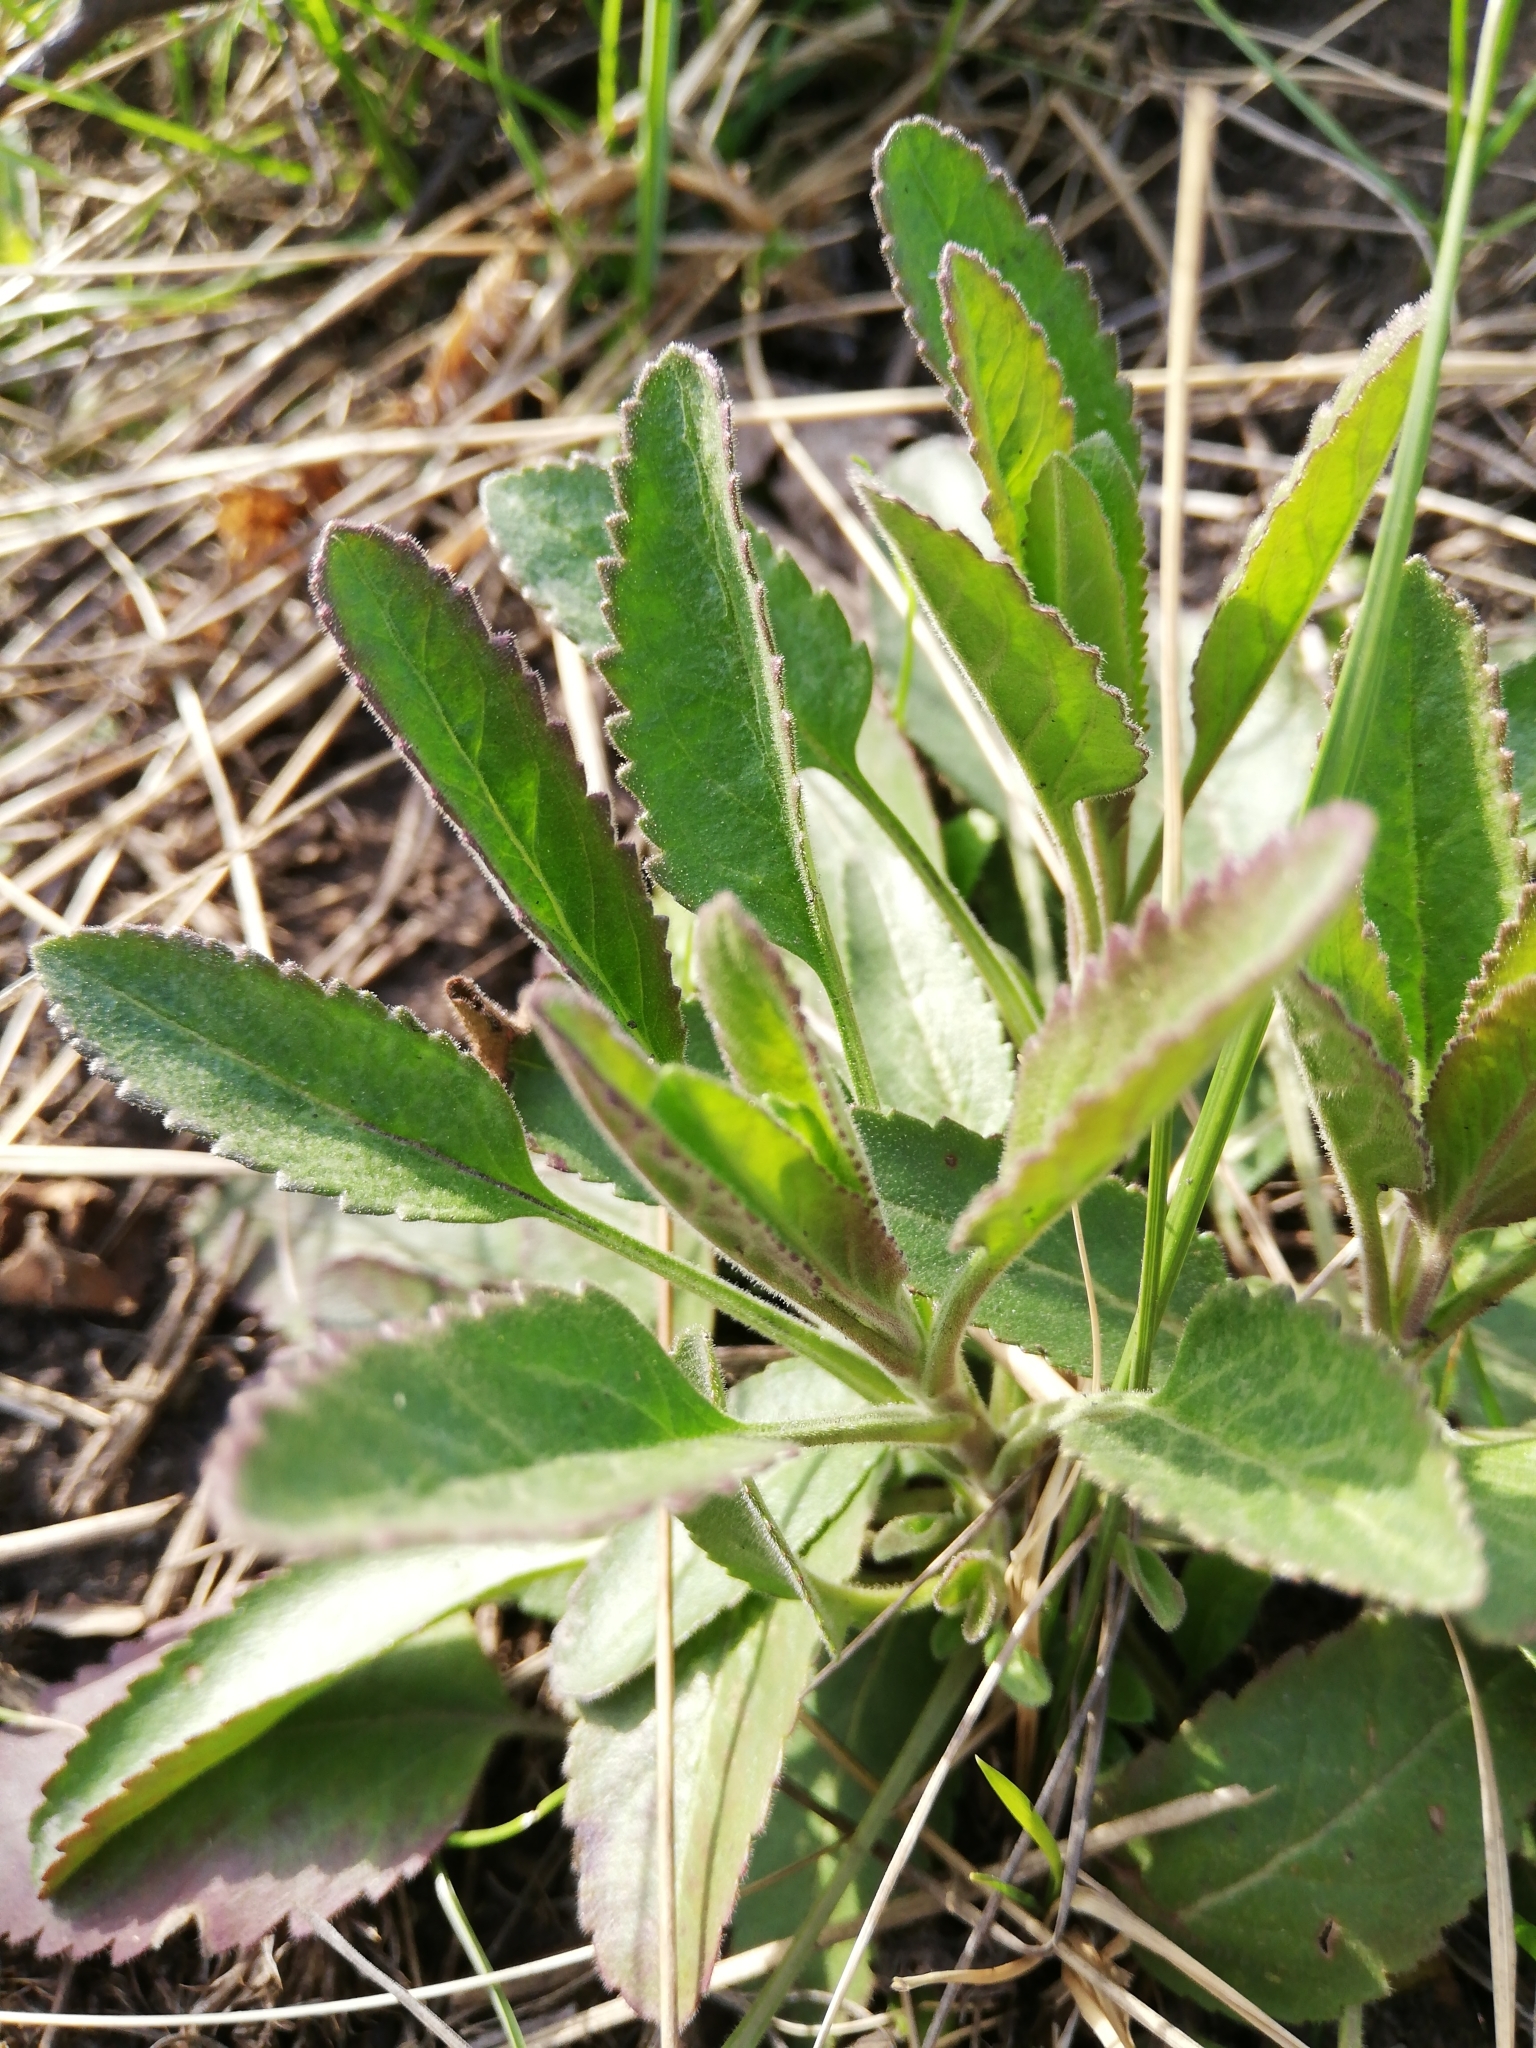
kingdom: Plantae
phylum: Tracheophyta
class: Magnoliopsida
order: Lamiales
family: Plantaginaceae
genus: Veronica
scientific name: Veronica spicata
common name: Spiked speedwell
